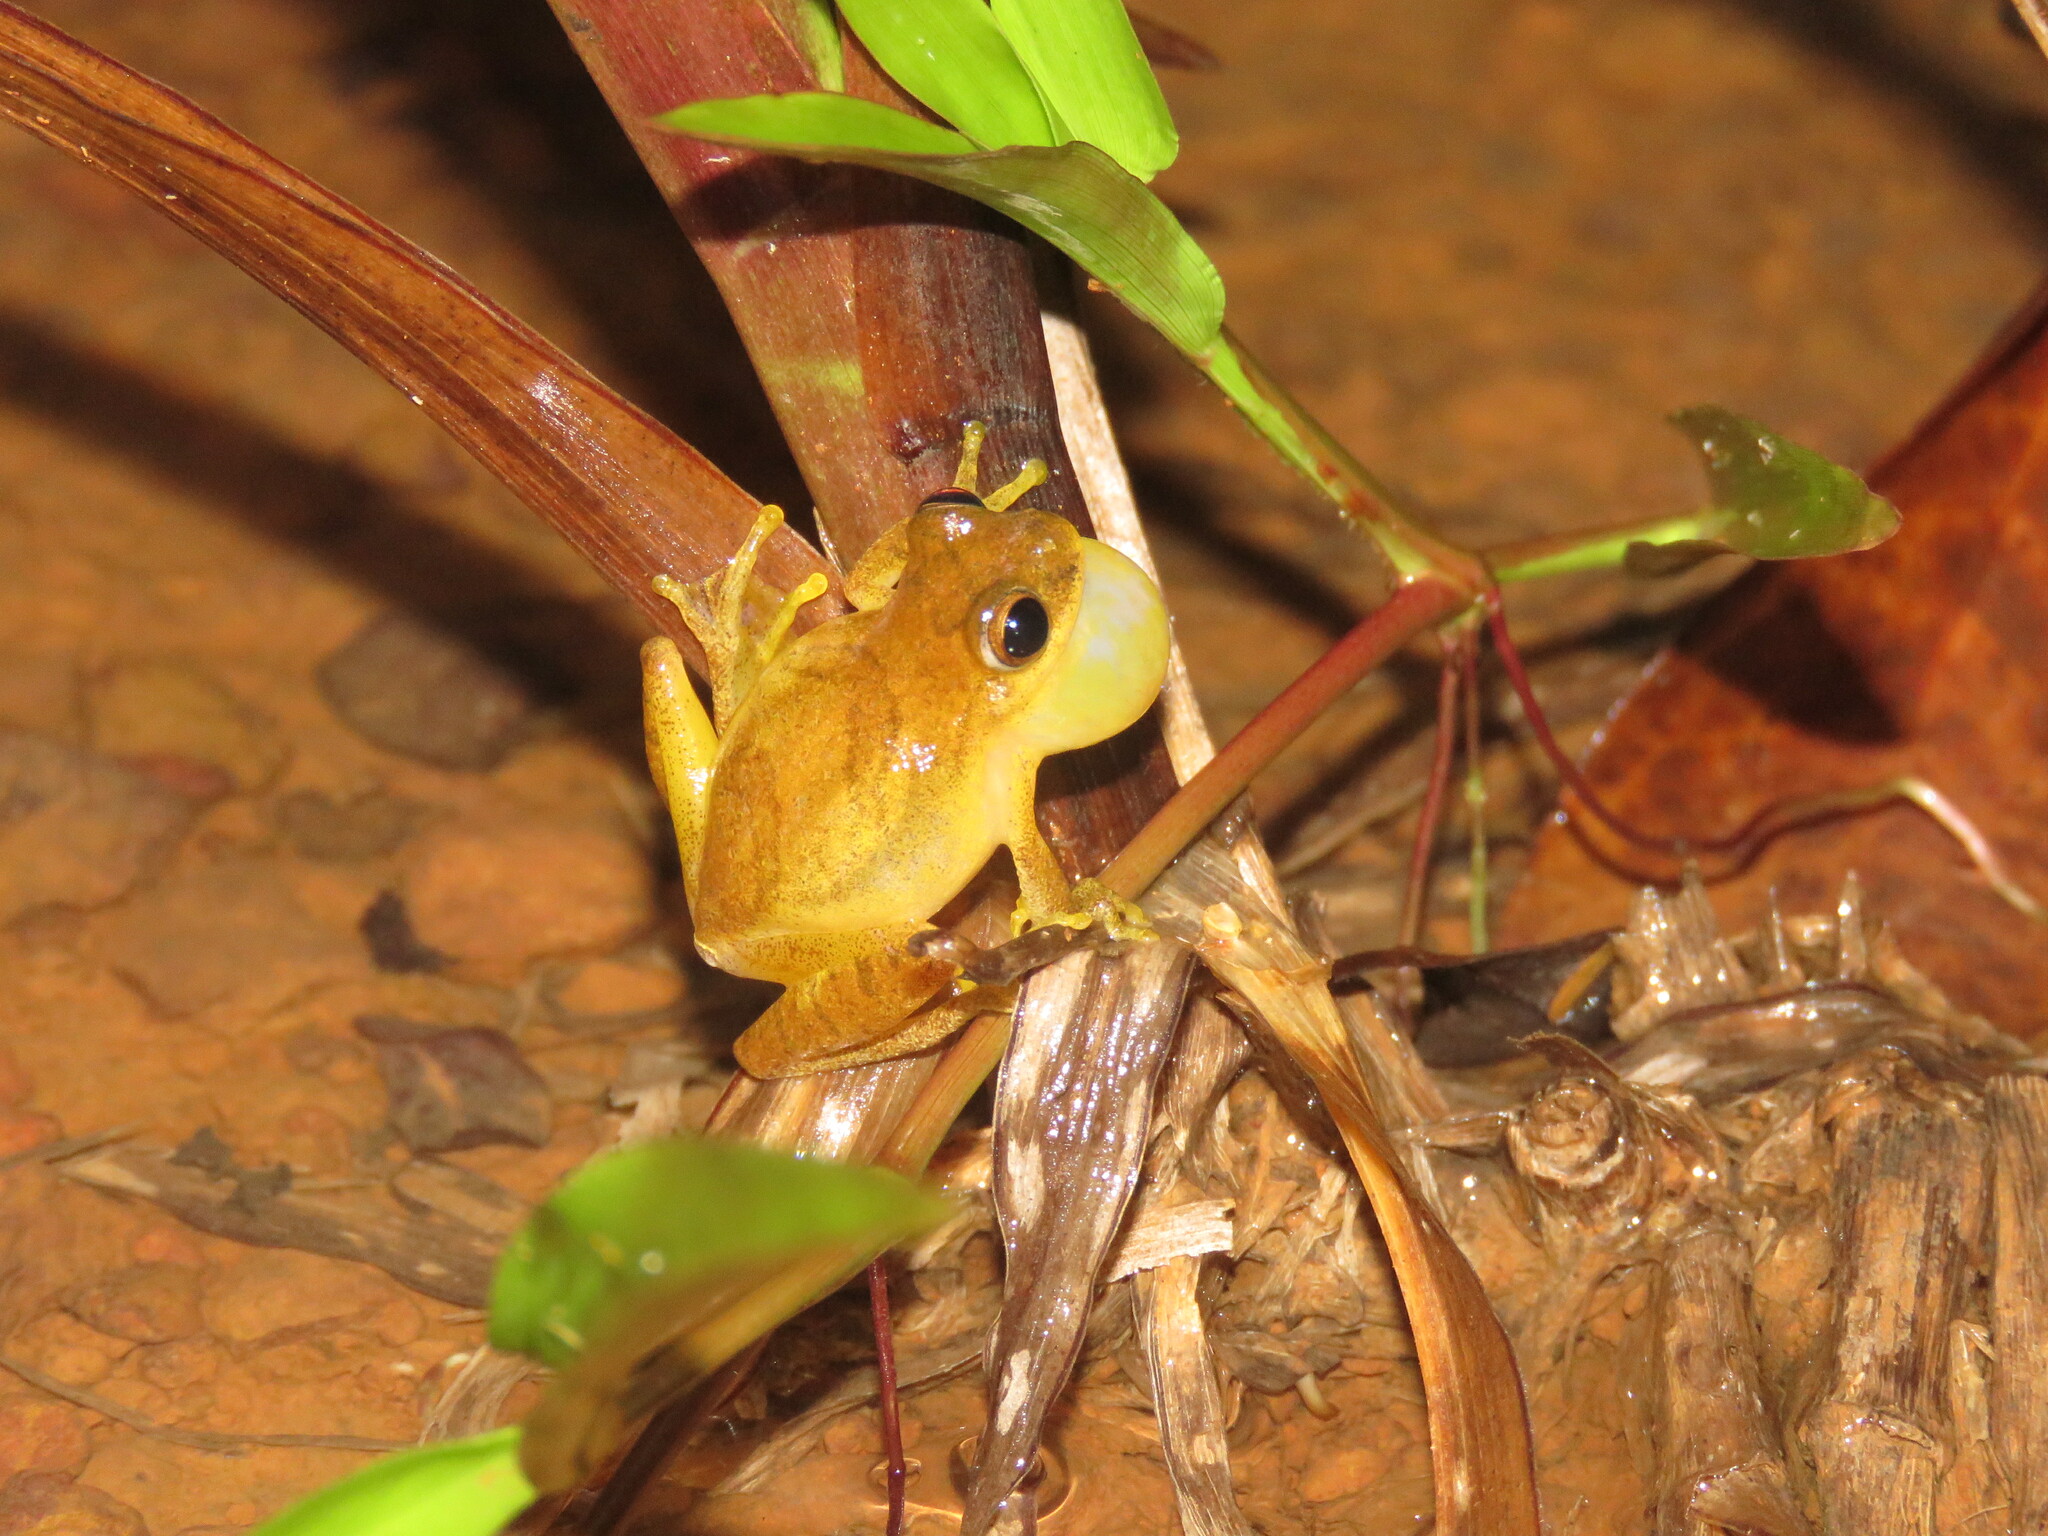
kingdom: Animalia
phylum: Chordata
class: Amphibia
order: Anura
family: Hylidae
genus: Dendropsophus
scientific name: Dendropsophus minutus
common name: Lesser treefrog
